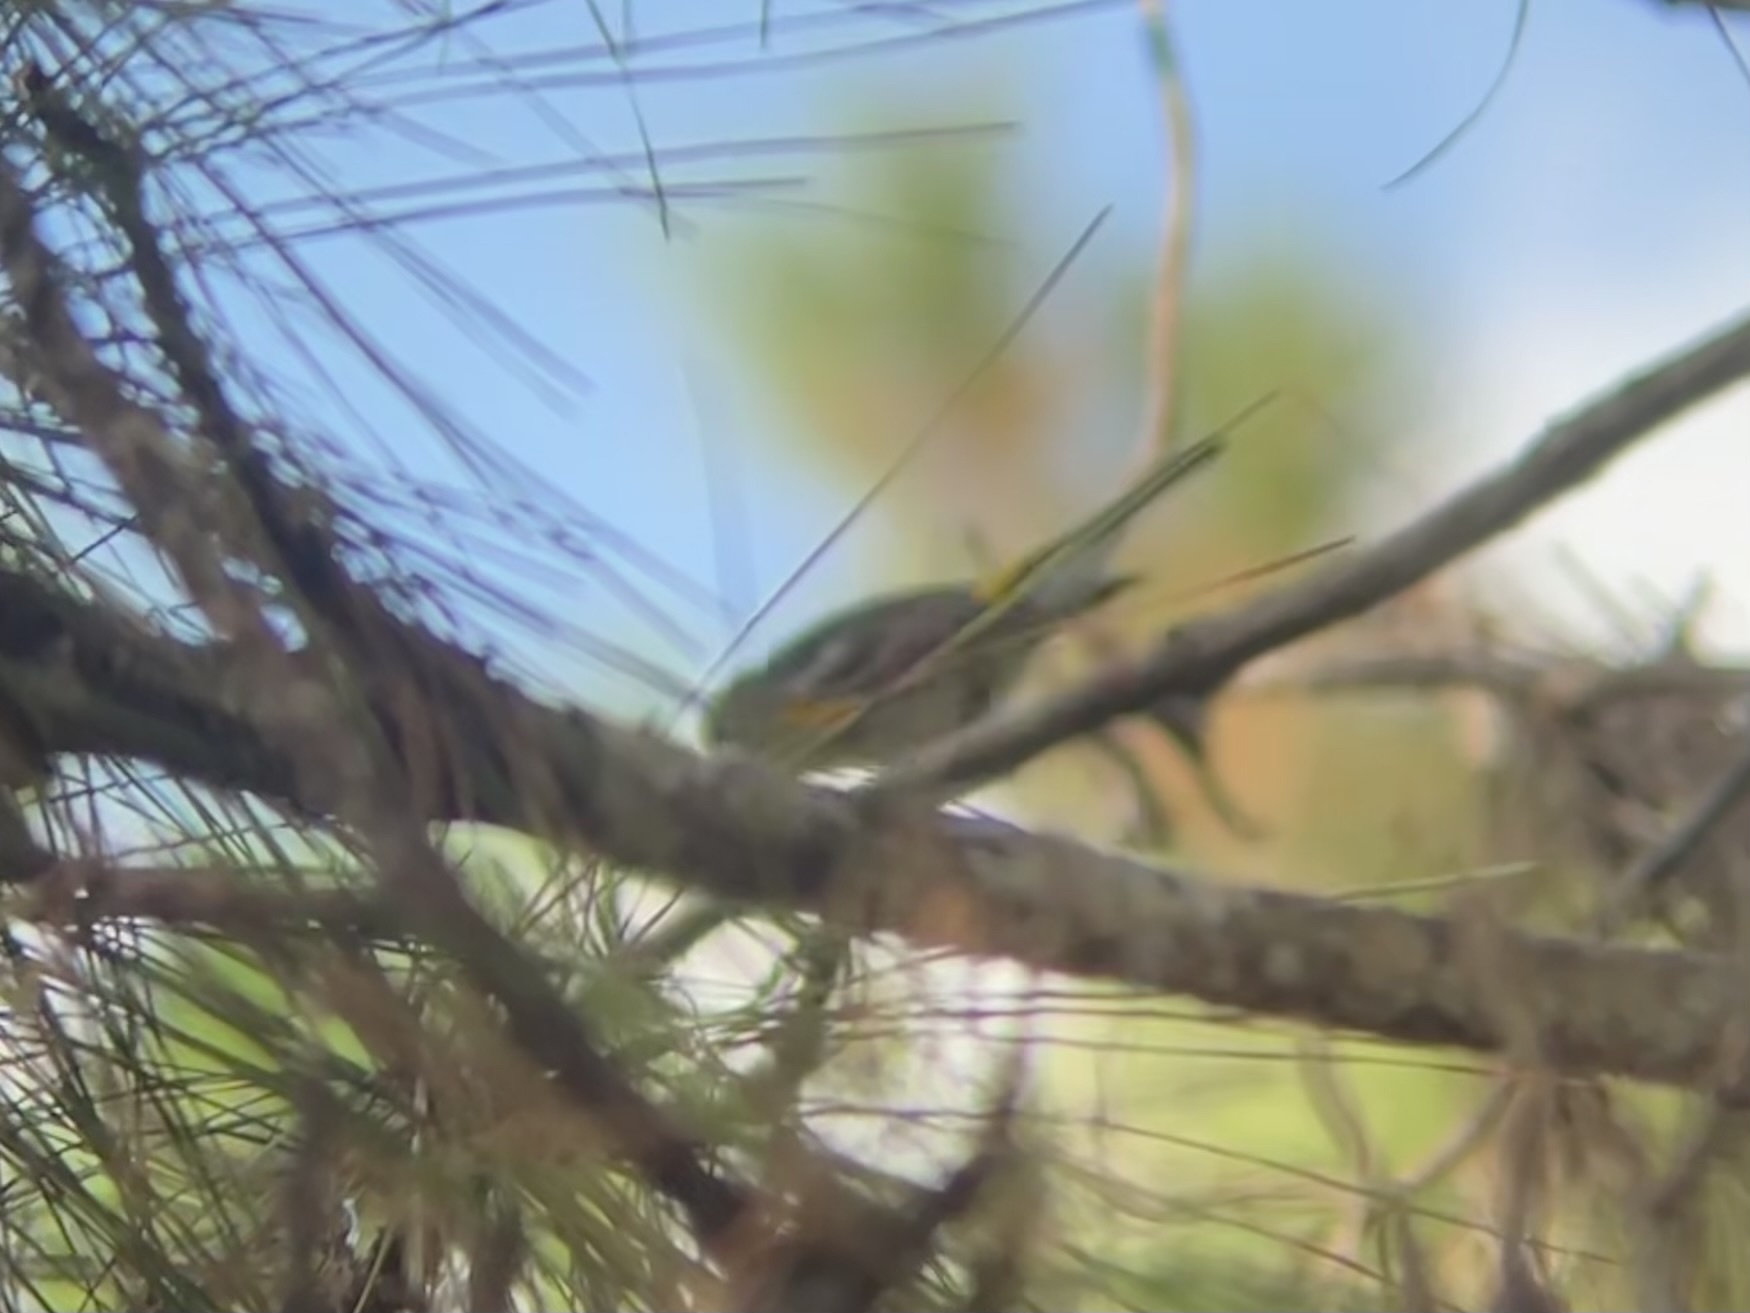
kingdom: Animalia
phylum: Chordata
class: Aves
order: Passeriformes
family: Parulidae
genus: Setophaga
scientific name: Setophaga coronata
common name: Myrtle warbler
